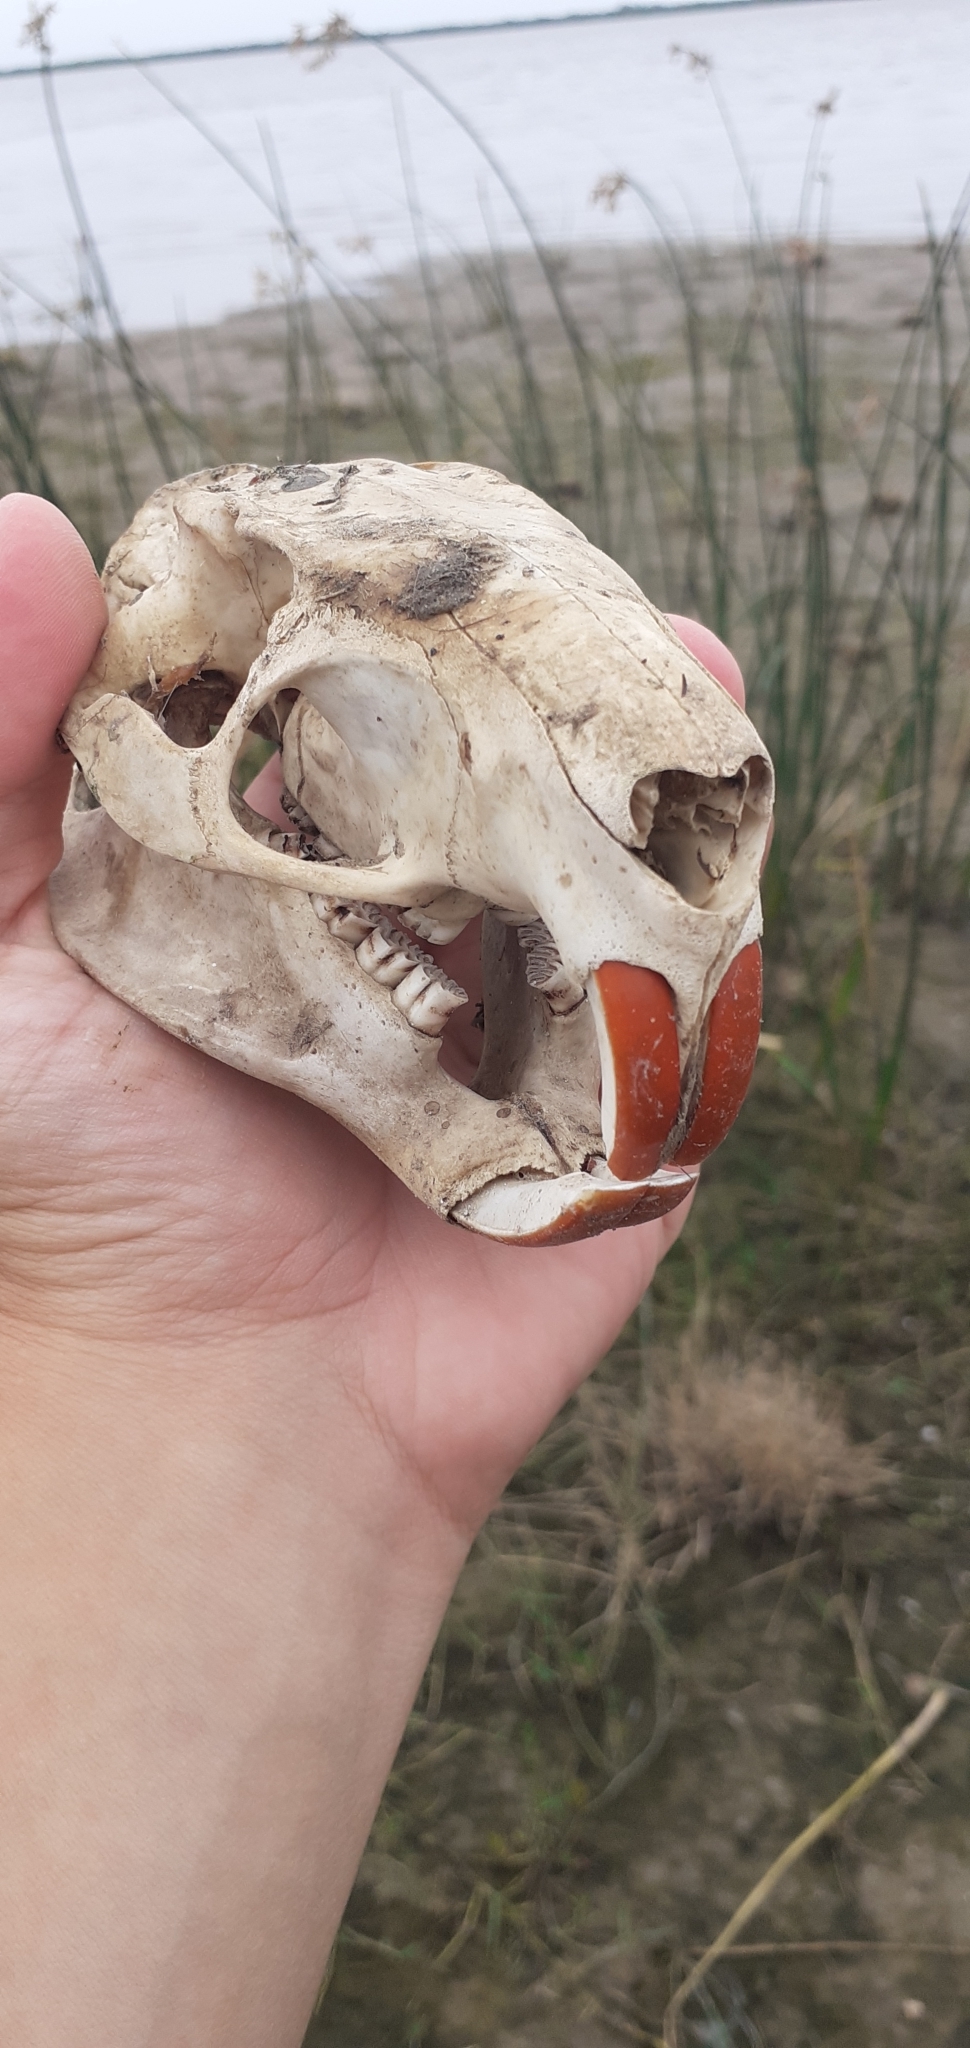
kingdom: Animalia
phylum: Chordata
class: Mammalia
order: Rodentia
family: Myocastoridae
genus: Myocastor
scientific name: Myocastor coypus
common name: Coypu
